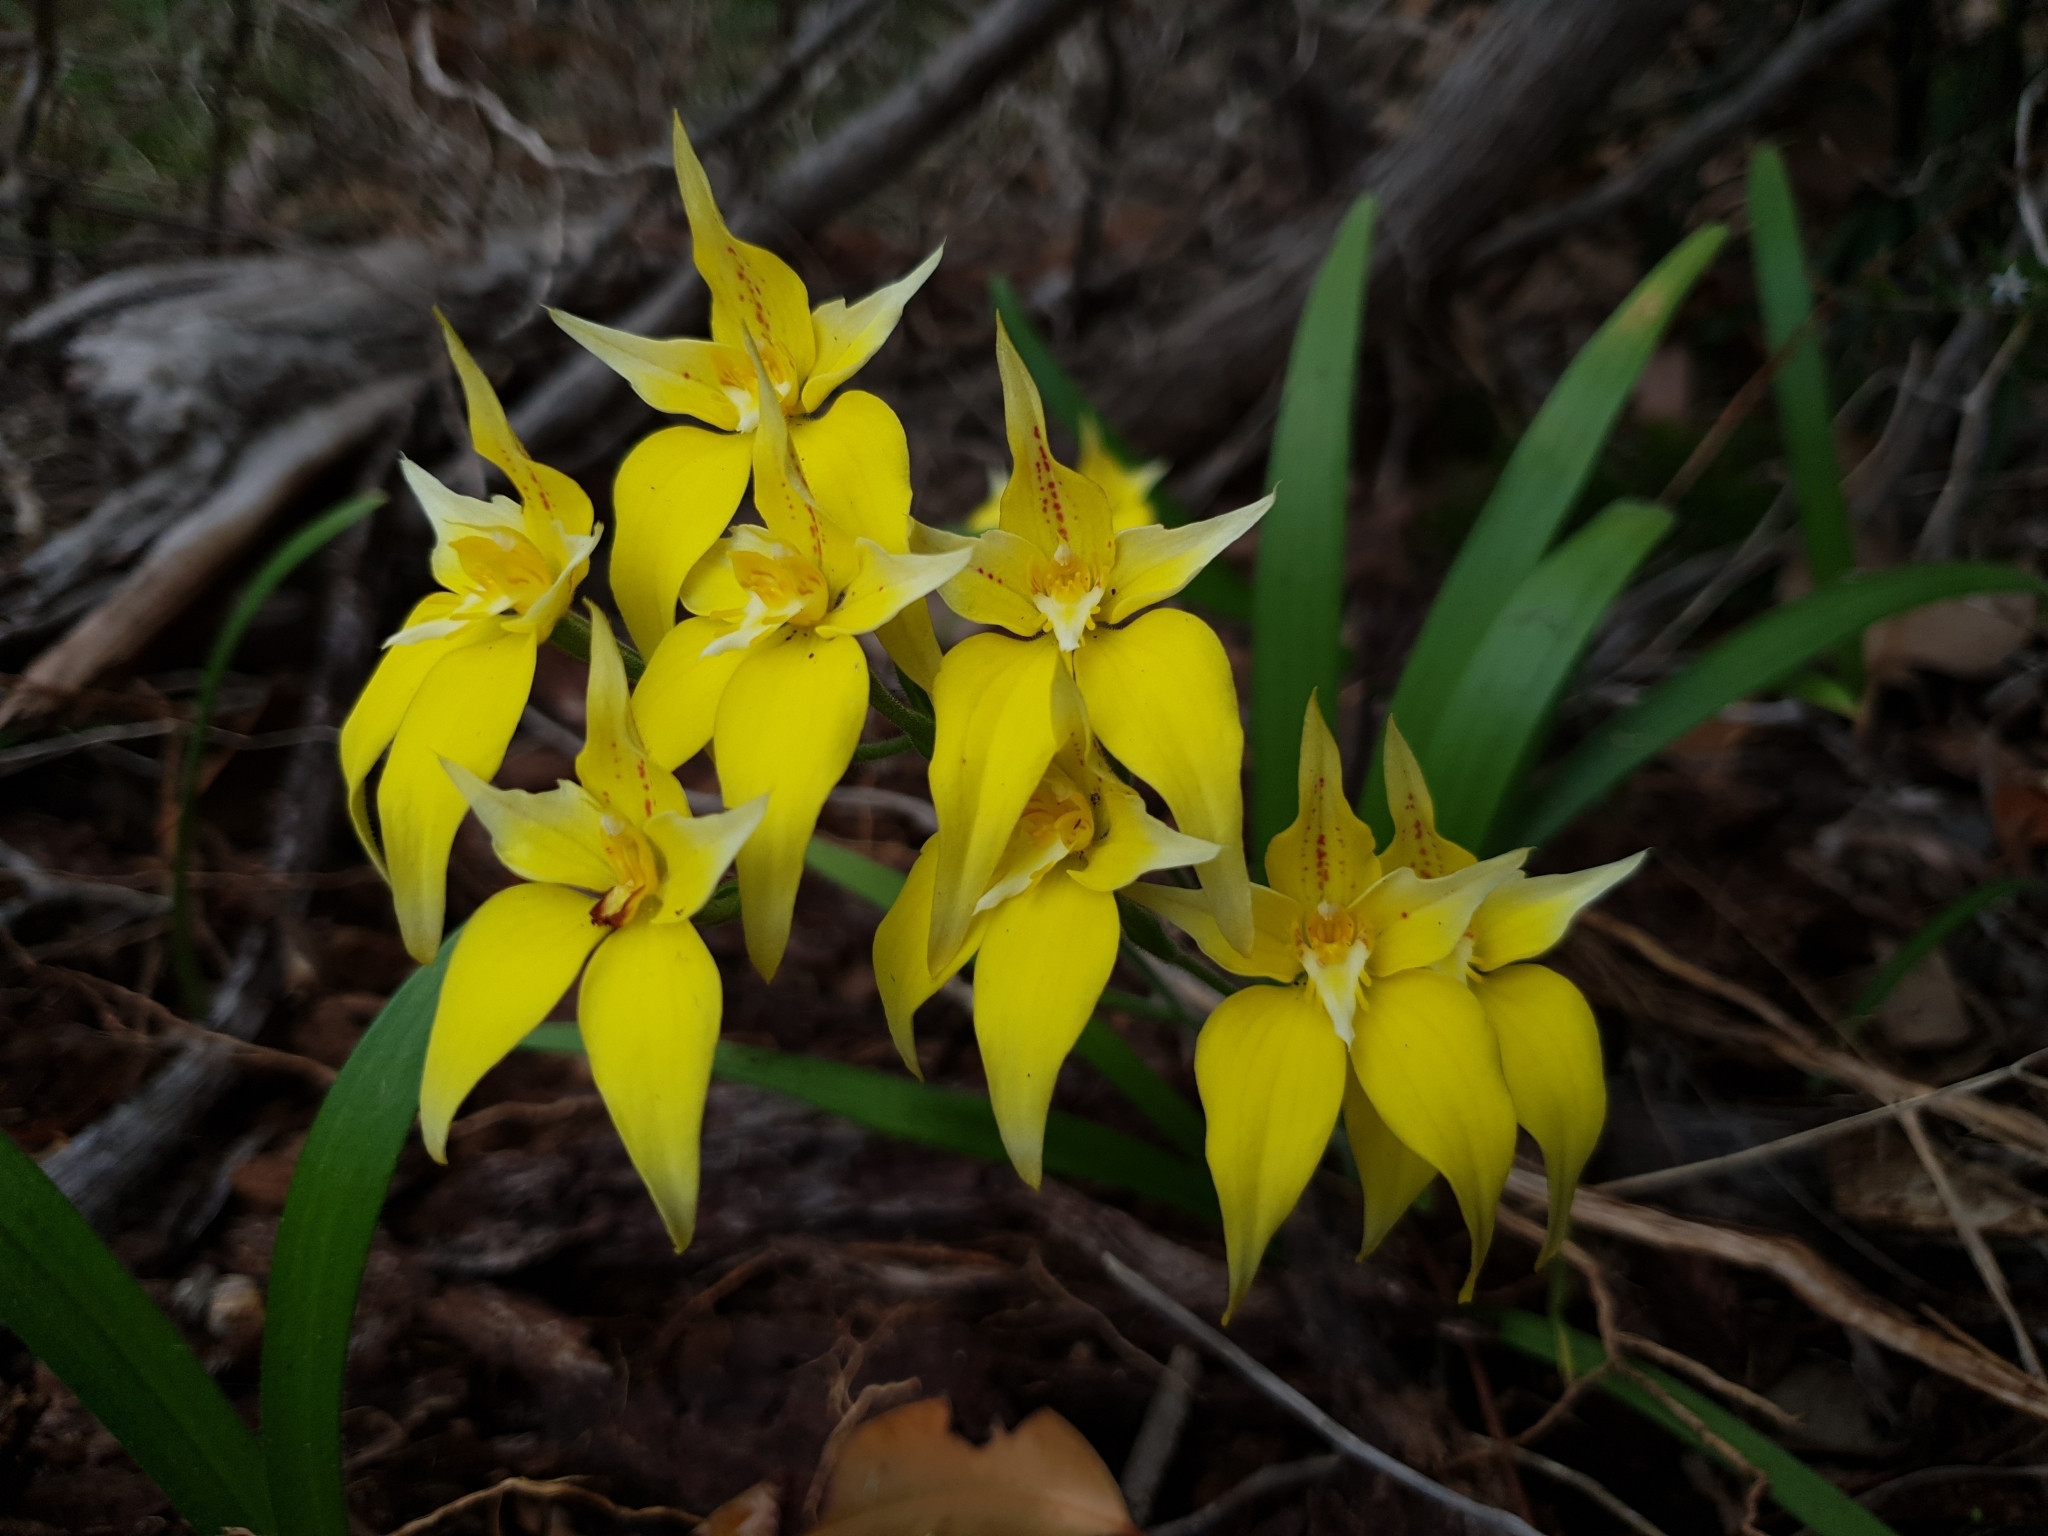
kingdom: Plantae
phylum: Tracheophyta
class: Liliopsida
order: Asparagales
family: Orchidaceae
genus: Caladenia
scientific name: Caladenia flava
